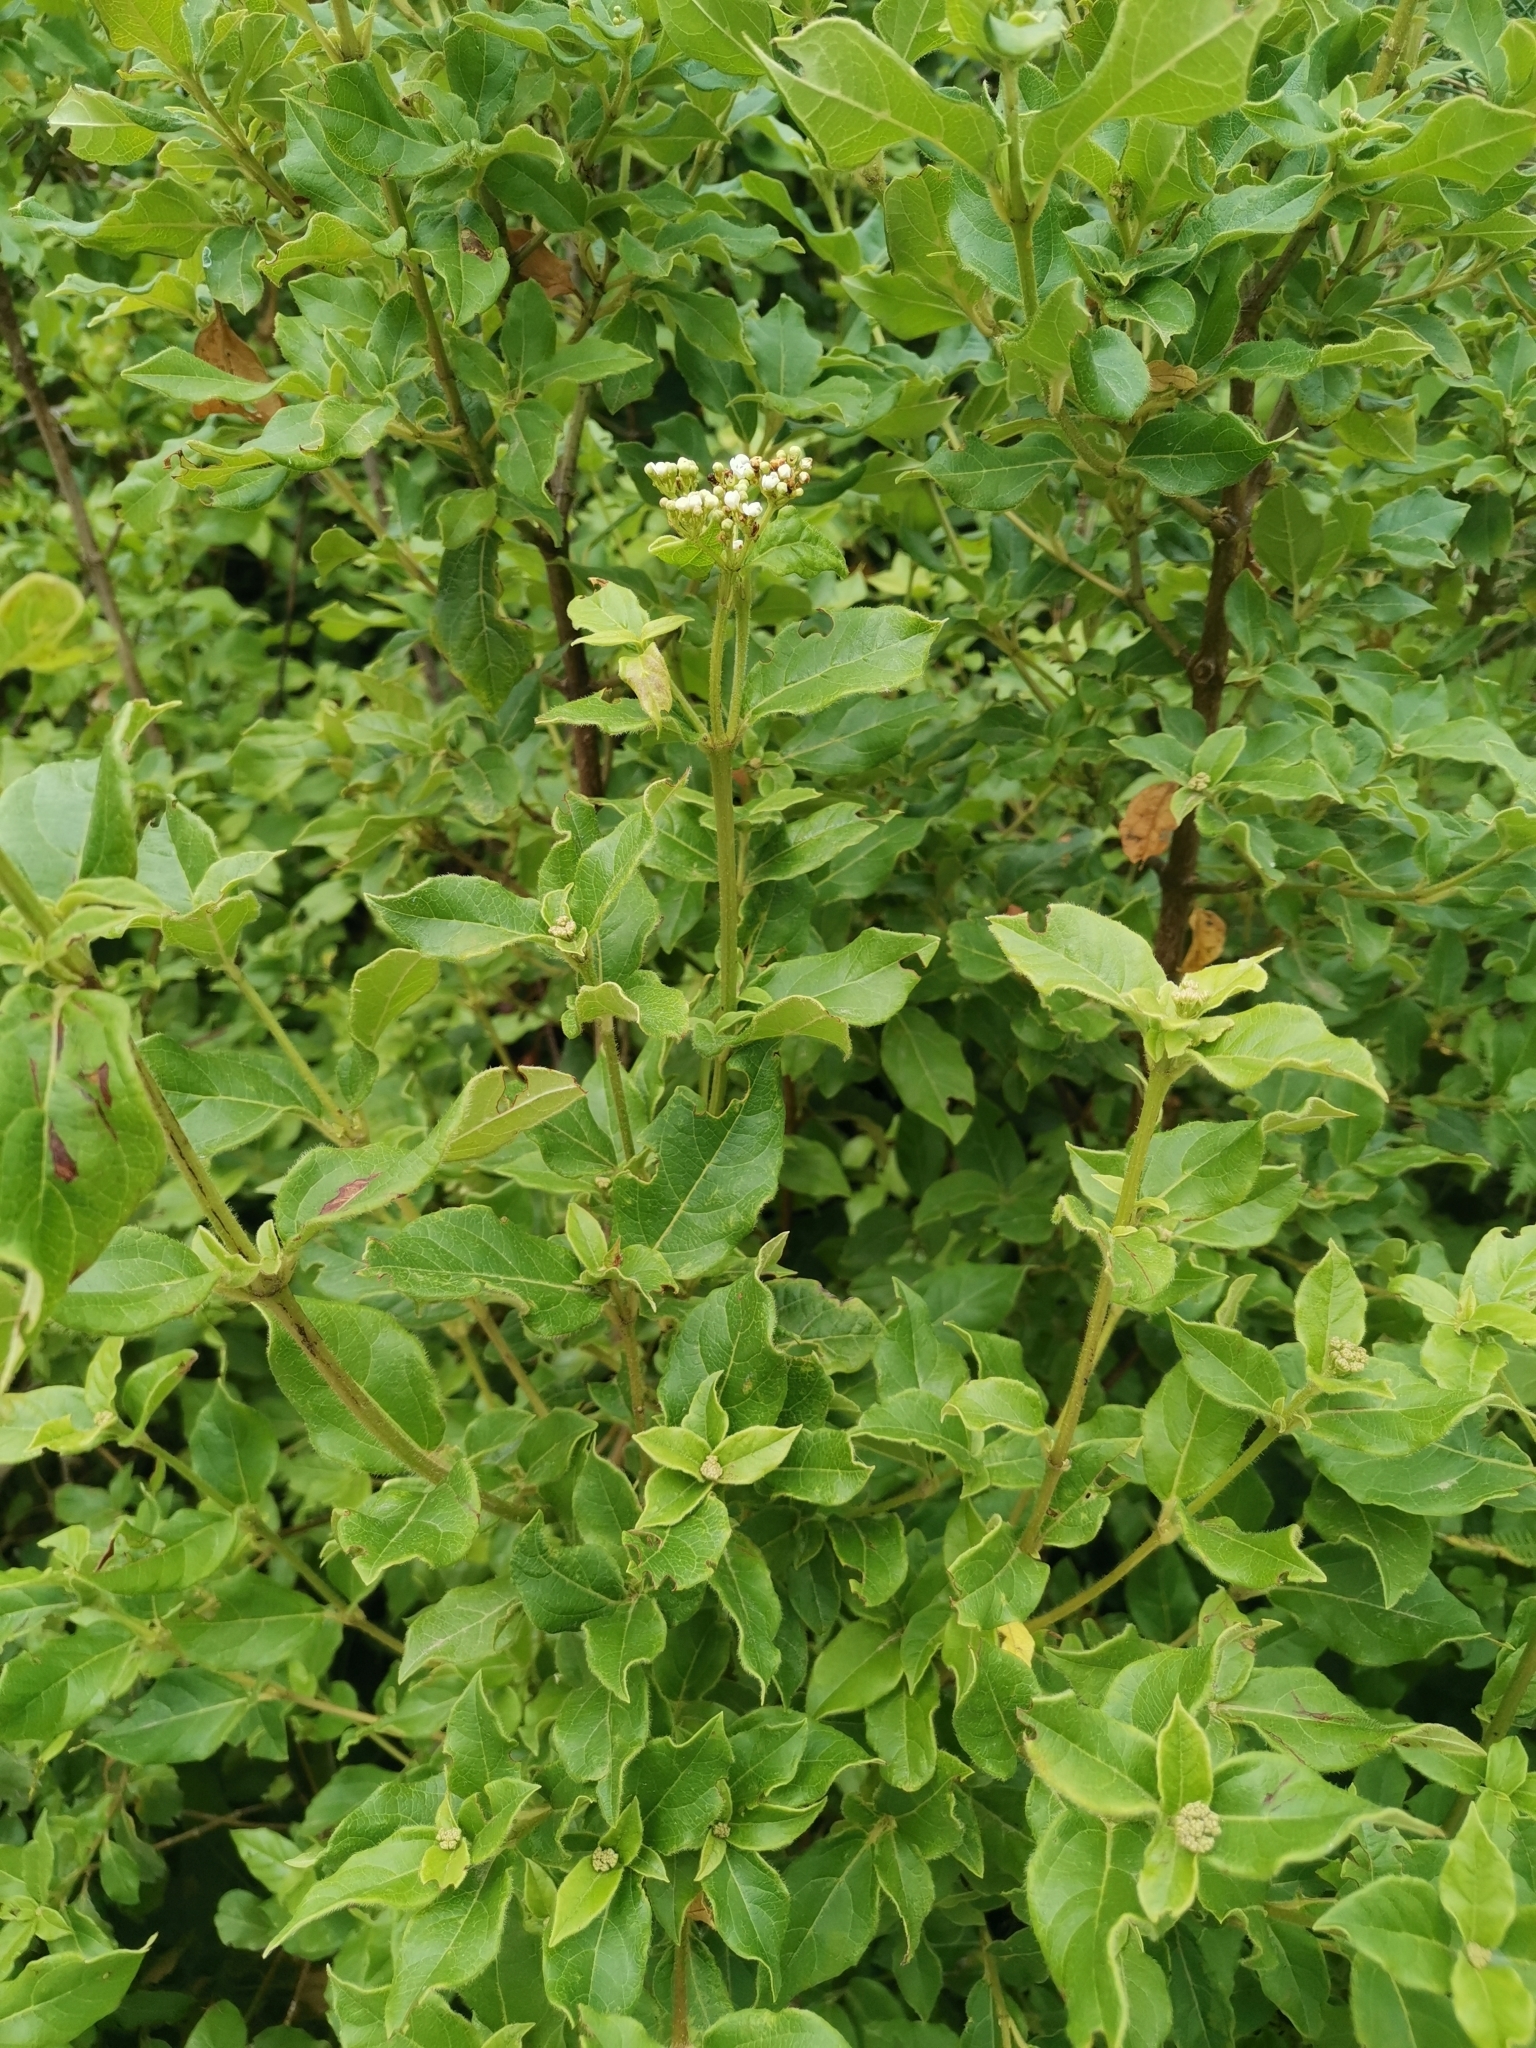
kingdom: Plantae
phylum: Tracheophyta
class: Magnoliopsida
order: Dipsacales
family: Viburnaceae
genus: Viburnum
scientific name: Viburnum tinus
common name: Laurustinus
